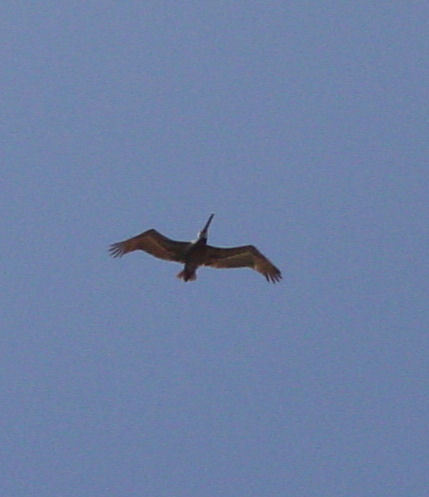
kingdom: Animalia
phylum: Chordata
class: Aves
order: Pelecaniformes
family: Pelecanidae
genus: Pelecanus
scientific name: Pelecanus occidentalis
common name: Brown pelican
